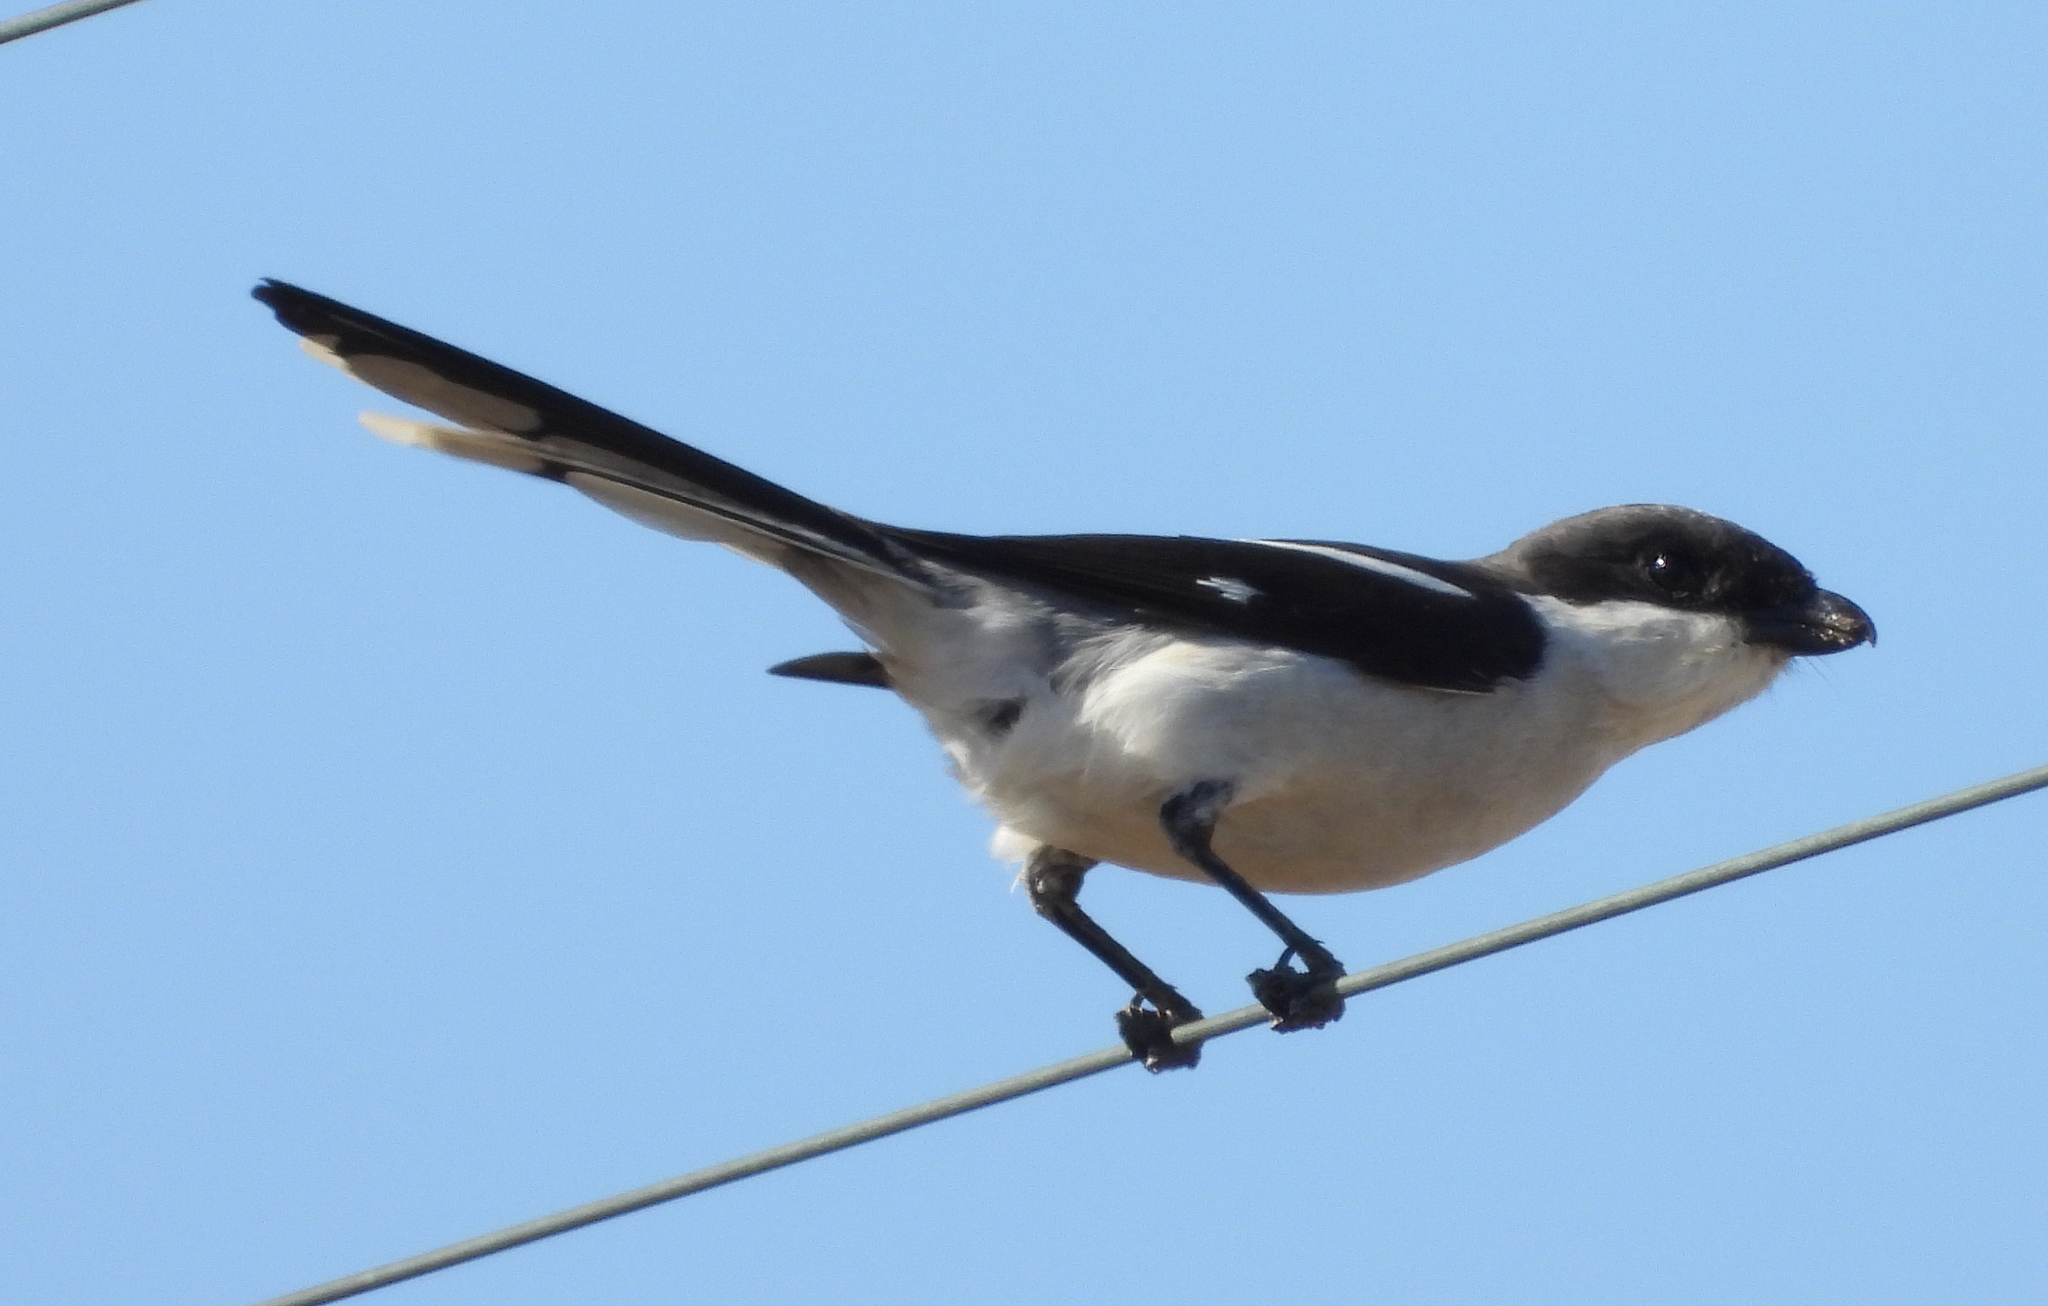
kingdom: Animalia
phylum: Chordata
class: Aves
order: Passeriformes
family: Laniidae
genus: Lanius
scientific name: Lanius collaris
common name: Southern fiscal
